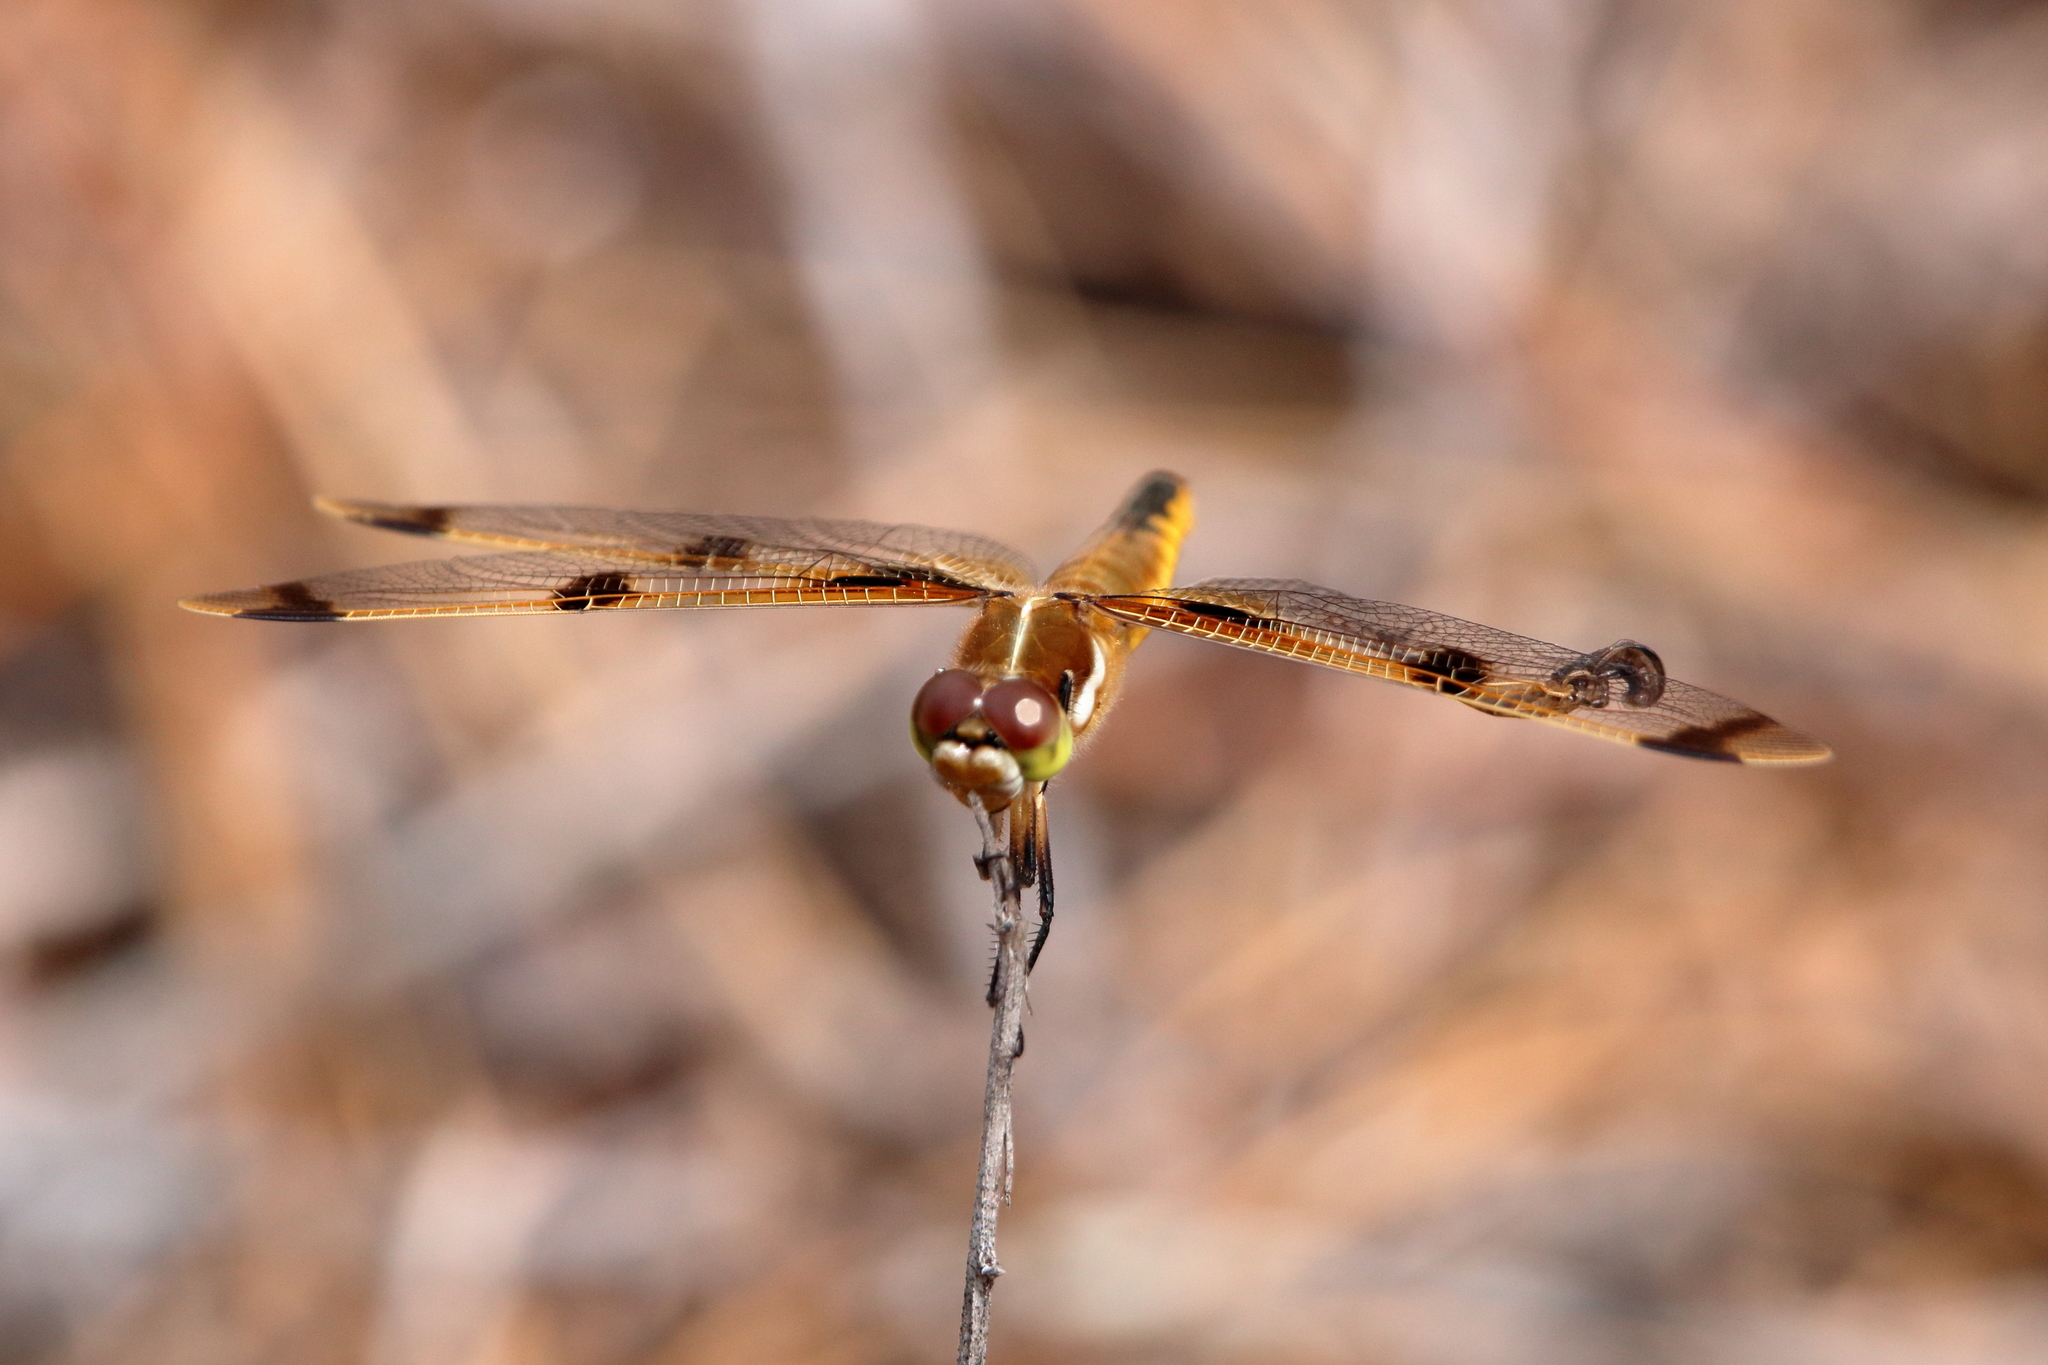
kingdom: Animalia
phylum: Arthropoda
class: Insecta
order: Odonata
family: Libellulidae
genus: Libellula
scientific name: Libellula semifasciata
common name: Painted skimmer
